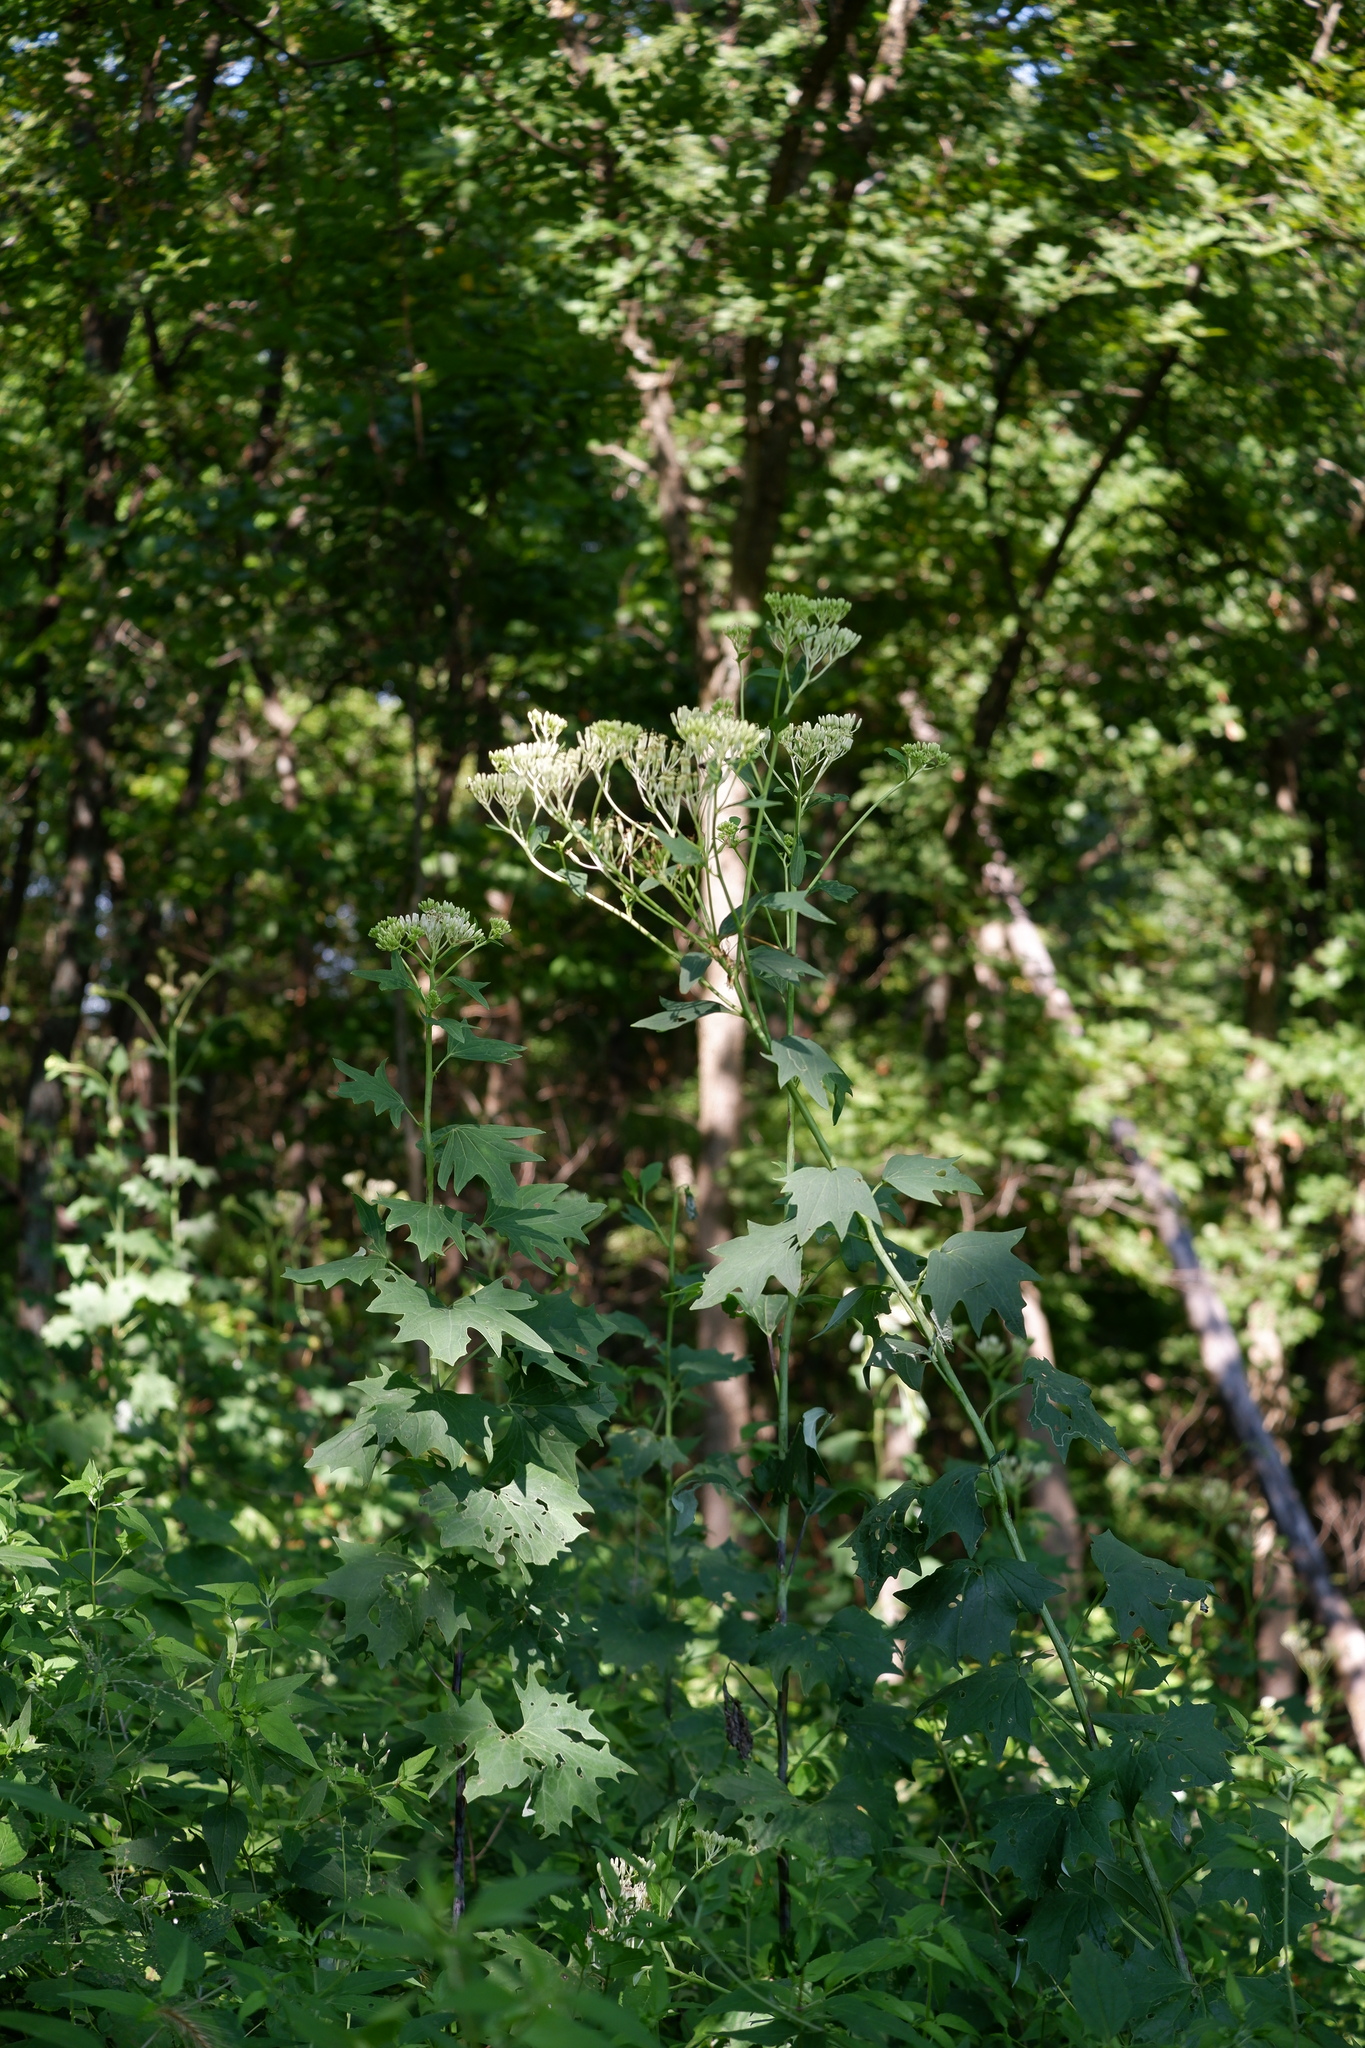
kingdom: Plantae
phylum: Tracheophyta
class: Magnoliopsida
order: Asterales
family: Asteraceae
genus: Arnoglossum
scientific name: Arnoglossum atriplicifolium
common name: Pale indian-plantain
